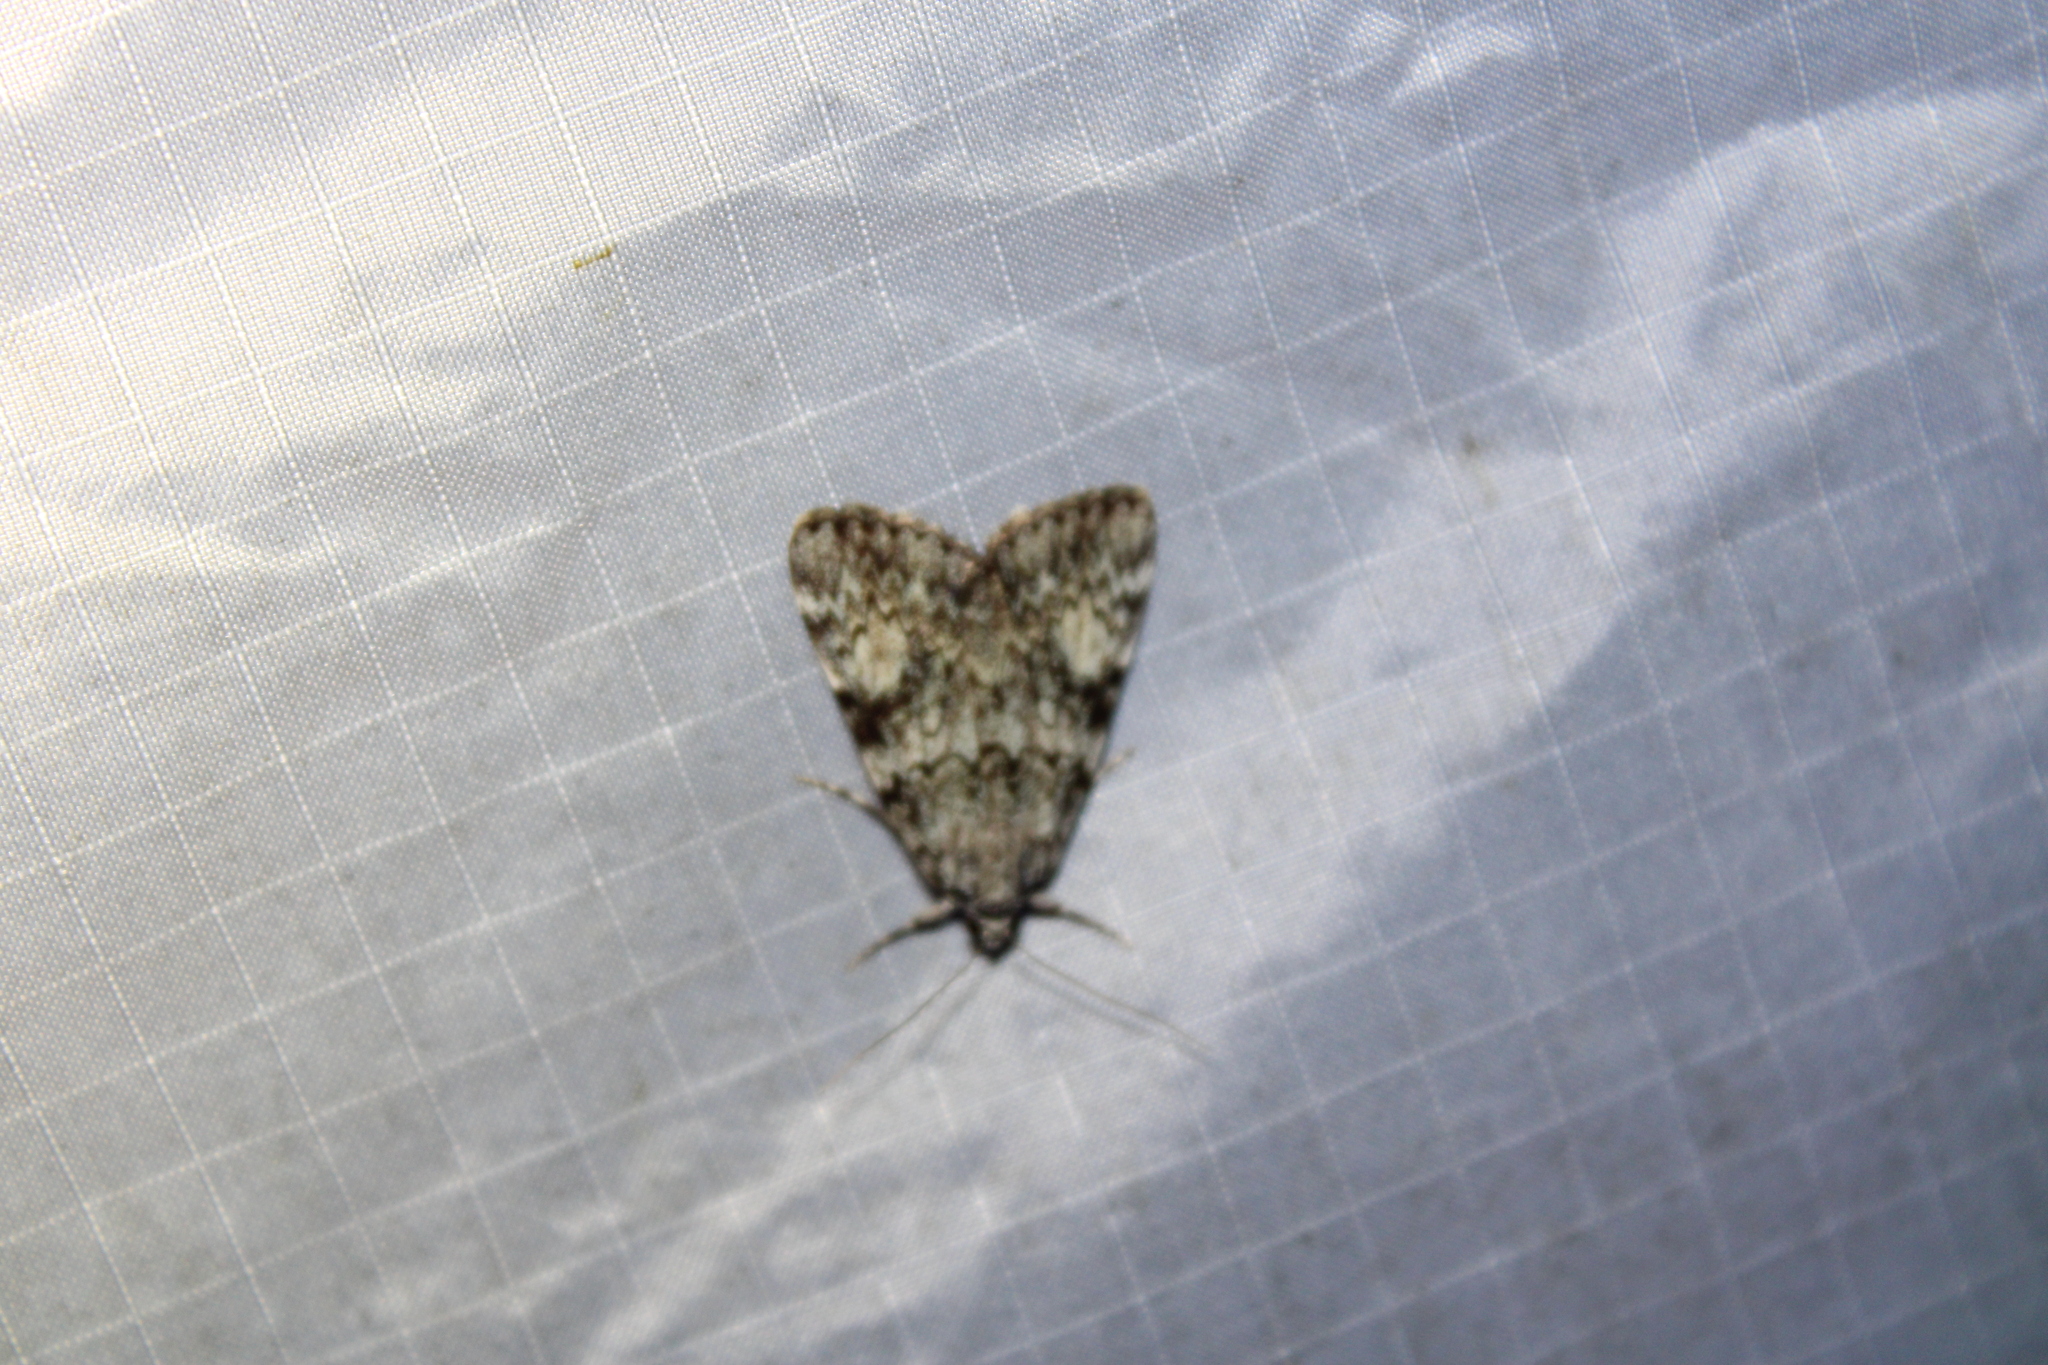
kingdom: Animalia
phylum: Arthropoda
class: Insecta
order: Lepidoptera
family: Erebidae
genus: Catocala
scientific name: Catocala lineella
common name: Little lined underwing
